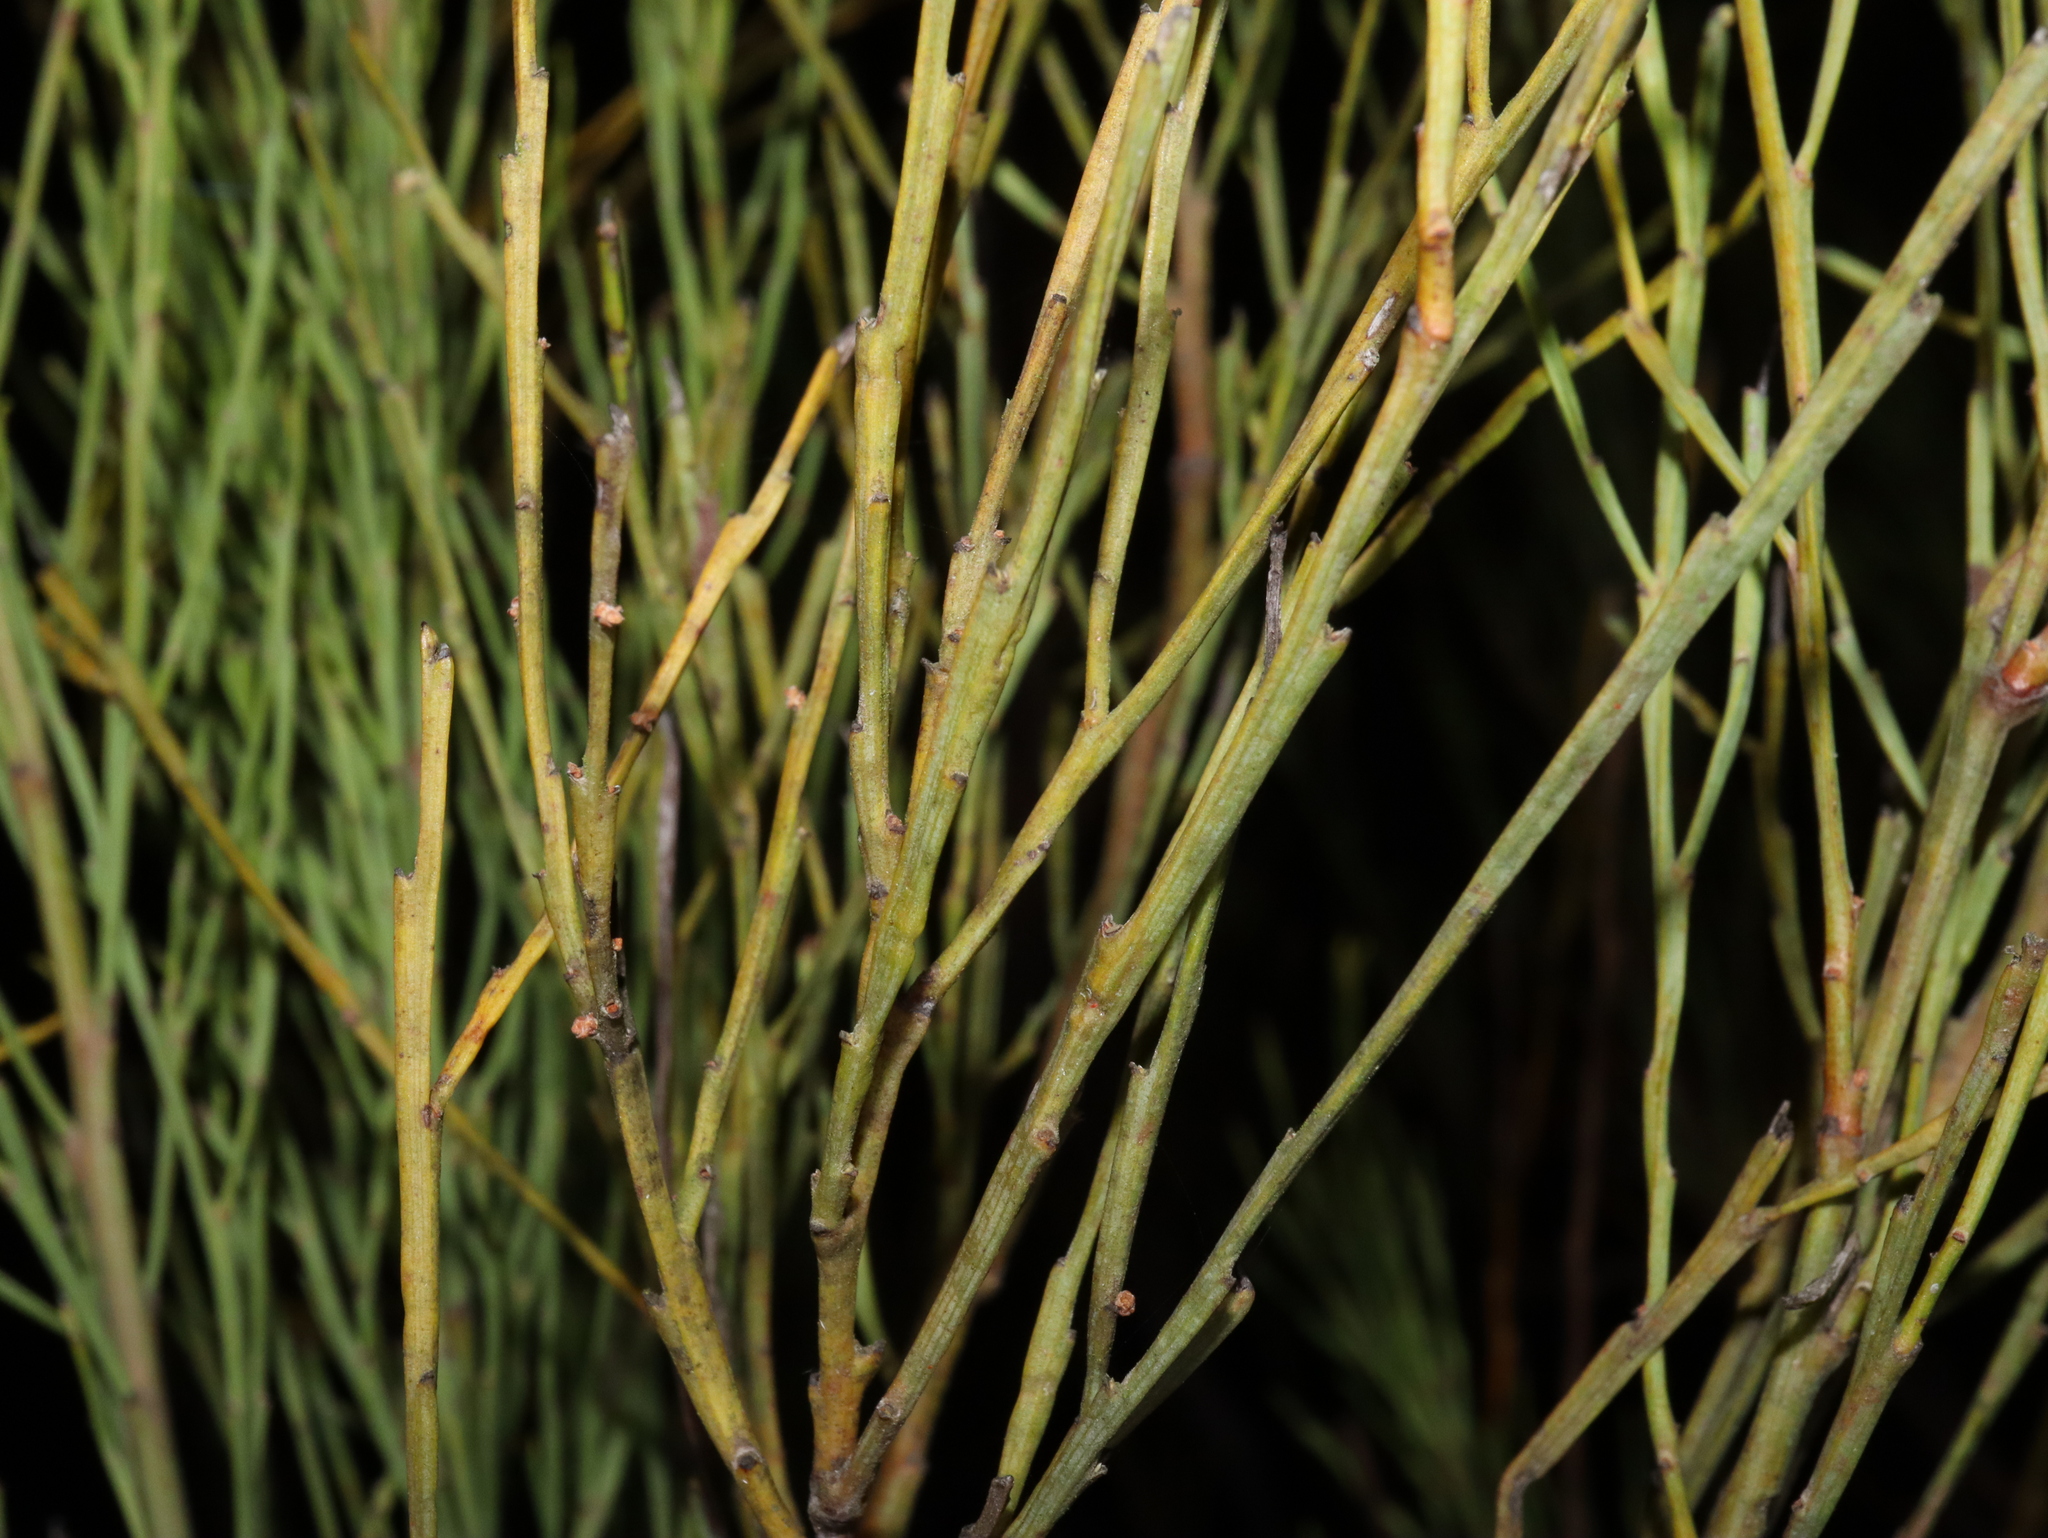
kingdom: Plantae
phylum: Tracheophyta
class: Magnoliopsida
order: Santalales
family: Santalaceae
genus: Exocarpos
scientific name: Exocarpos strictus
